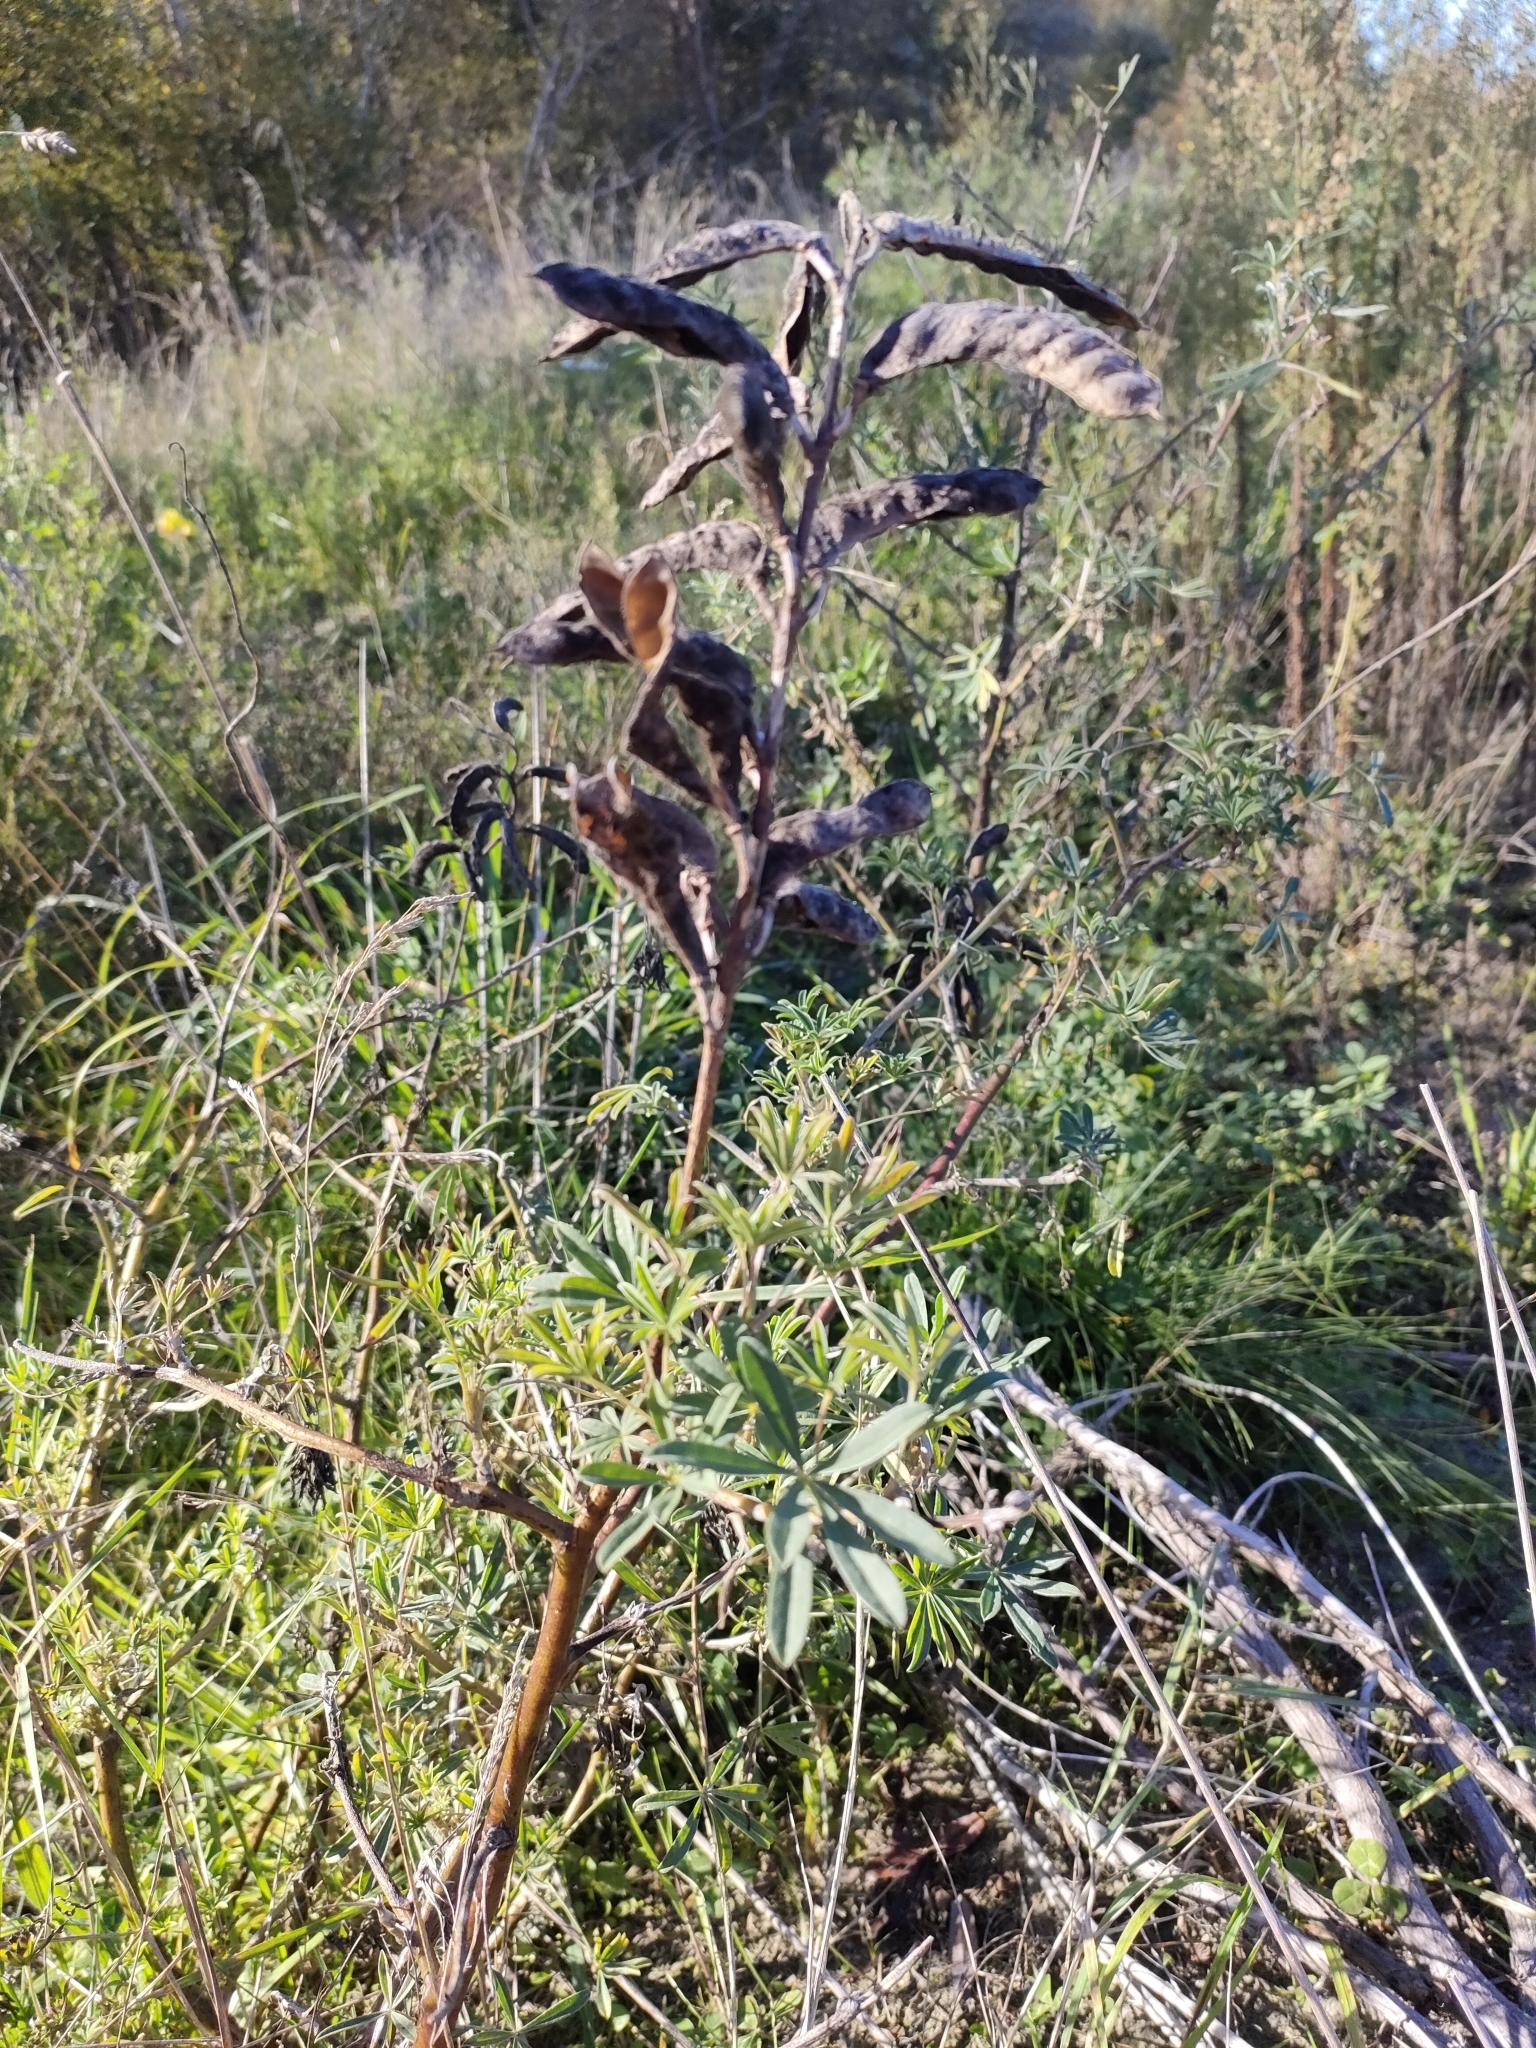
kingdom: Plantae
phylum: Tracheophyta
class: Magnoliopsida
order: Fabales
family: Fabaceae
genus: Lupinus
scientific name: Lupinus arboreus
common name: Yellow bush lupine
